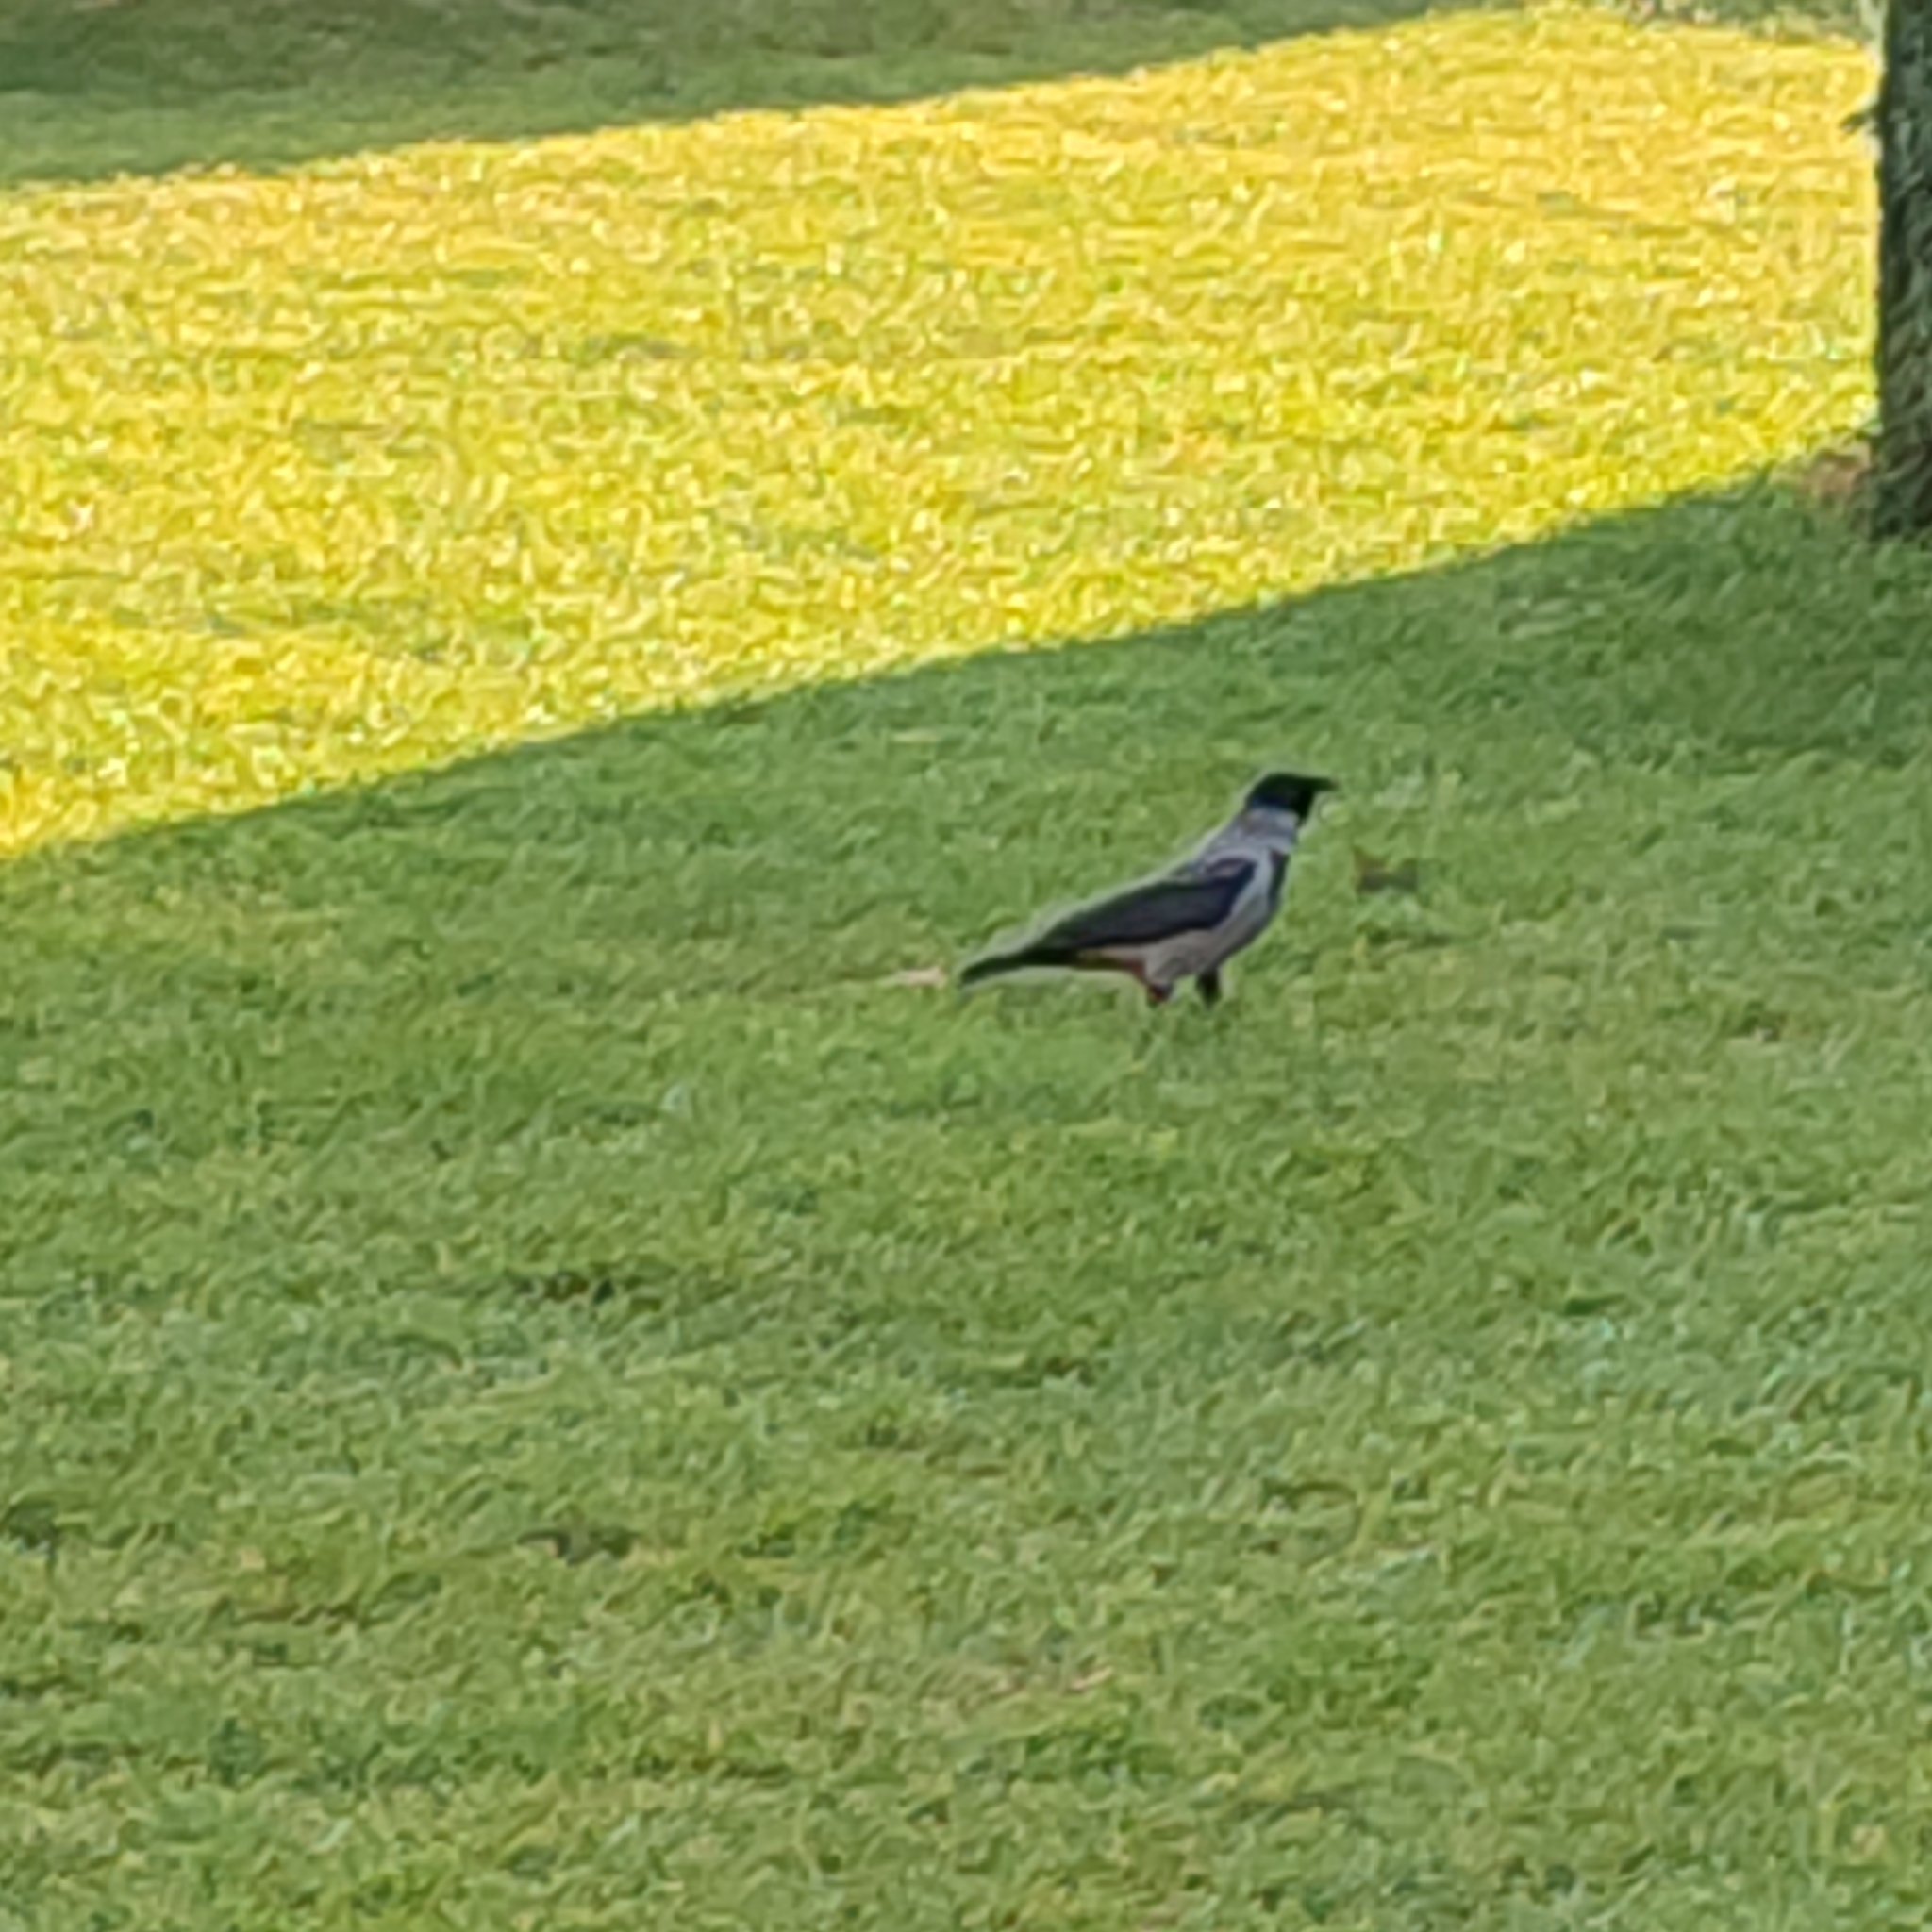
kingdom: Animalia
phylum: Chordata
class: Aves
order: Passeriformes
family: Corvidae
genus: Corvus
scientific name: Corvus cornix
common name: Hooded crow
